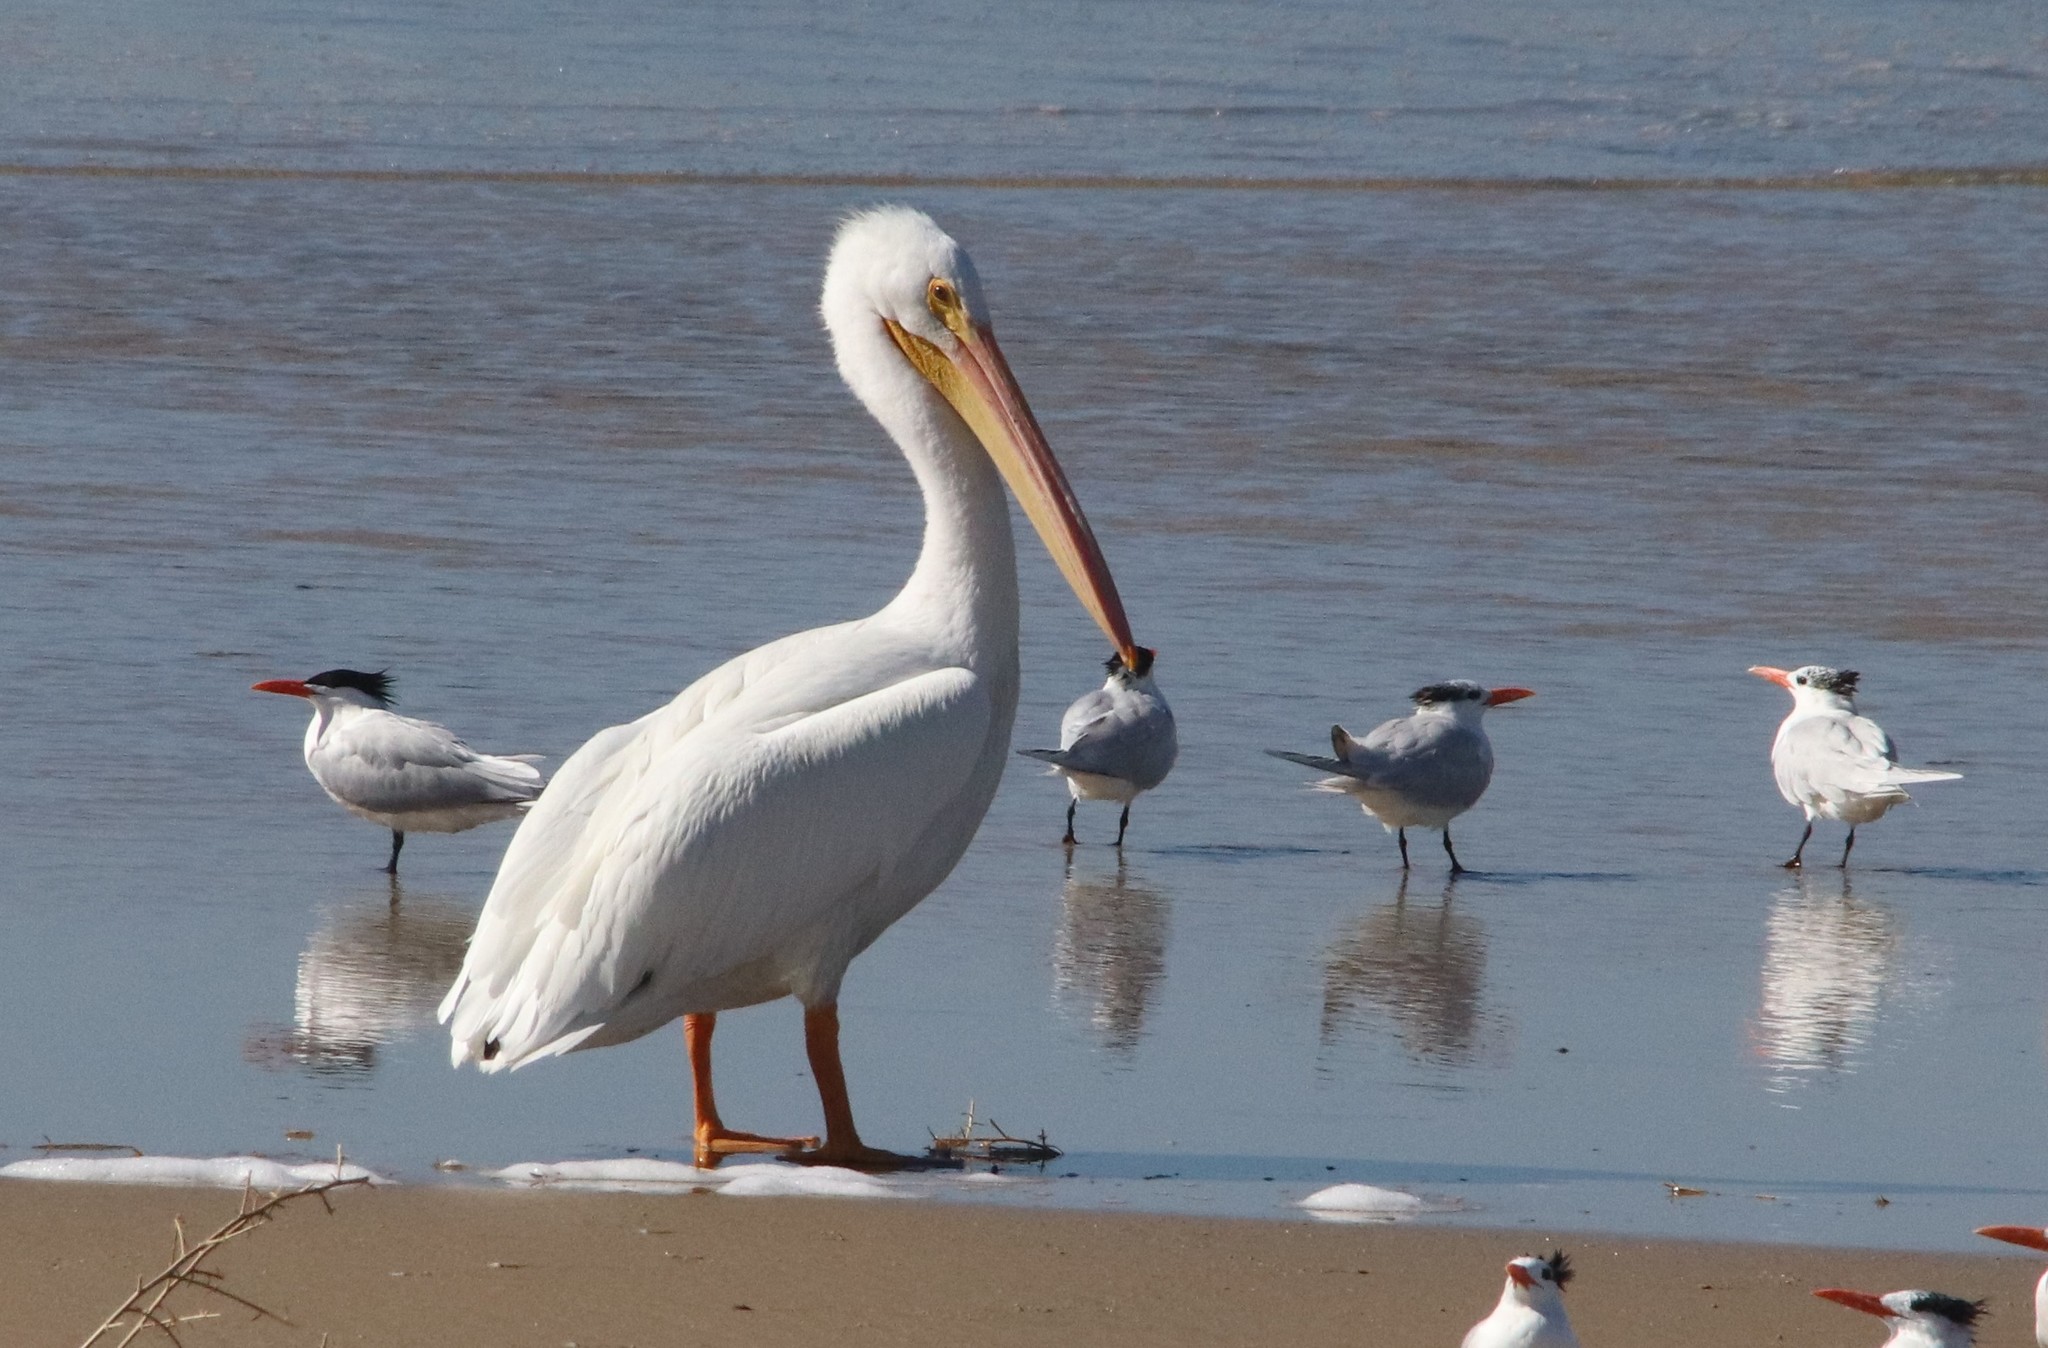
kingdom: Animalia
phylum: Chordata
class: Aves
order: Pelecaniformes
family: Pelecanidae
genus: Pelecanus
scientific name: Pelecanus erythrorhynchos
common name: American white pelican
